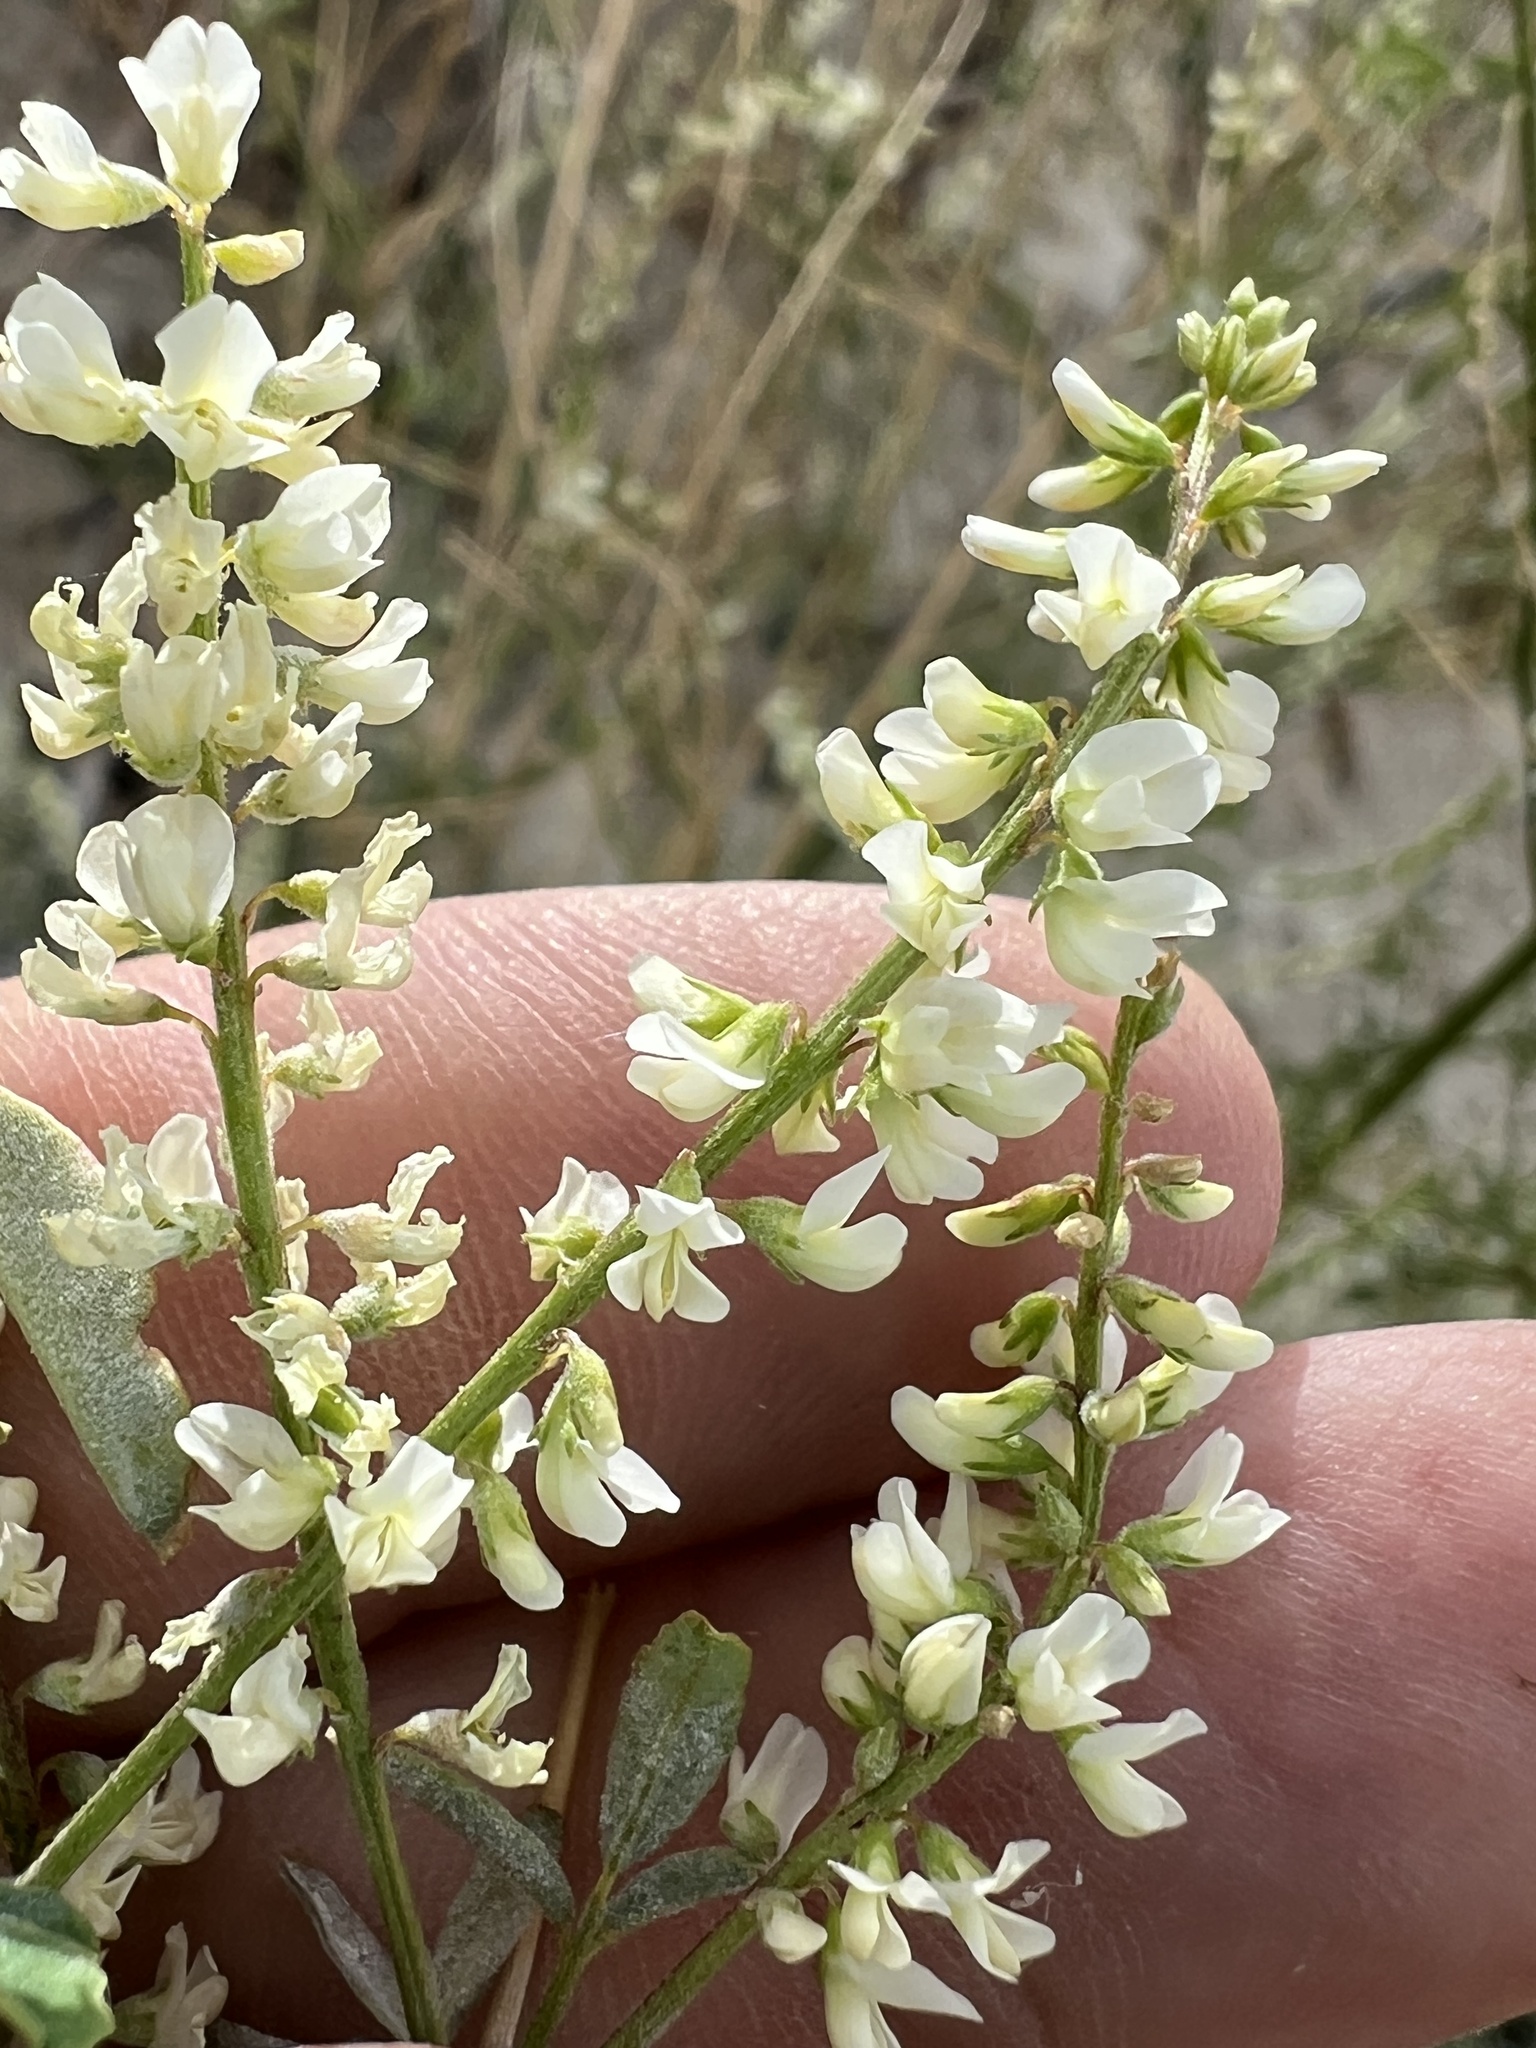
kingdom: Plantae
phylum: Tracheophyta
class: Magnoliopsida
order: Fabales
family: Fabaceae
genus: Melilotus
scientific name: Melilotus albus
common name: White melilot
